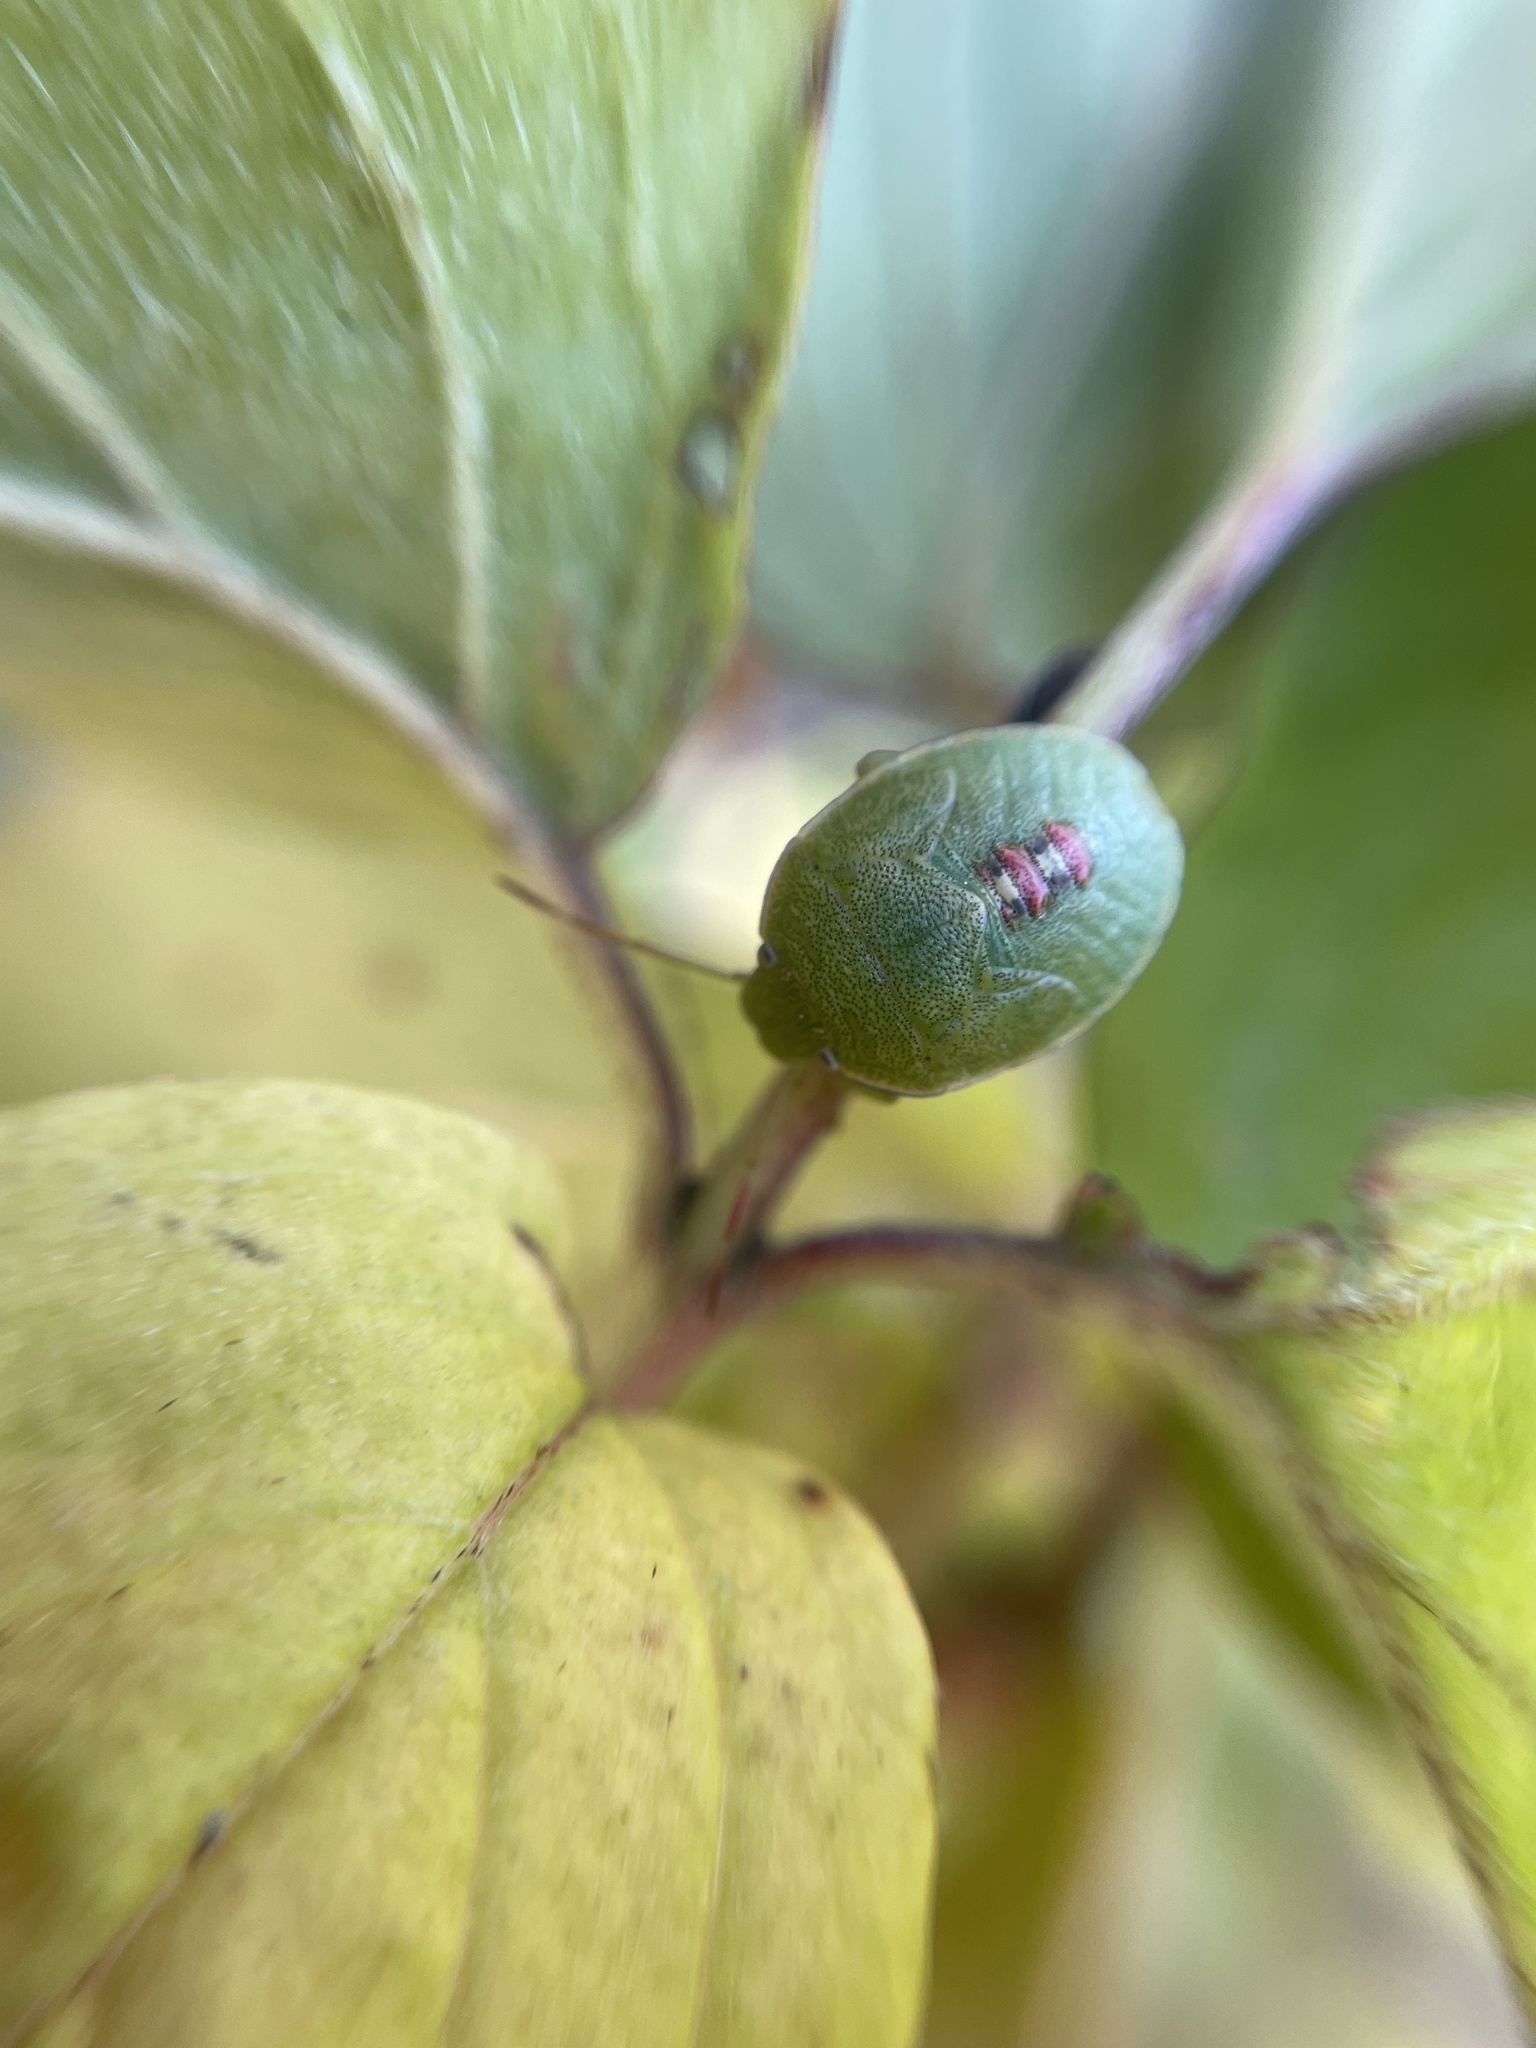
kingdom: Animalia
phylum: Arthropoda
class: Insecta
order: Hemiptera
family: Pentatomidae
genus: Acrosternum
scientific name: Acrosternum heegeri
